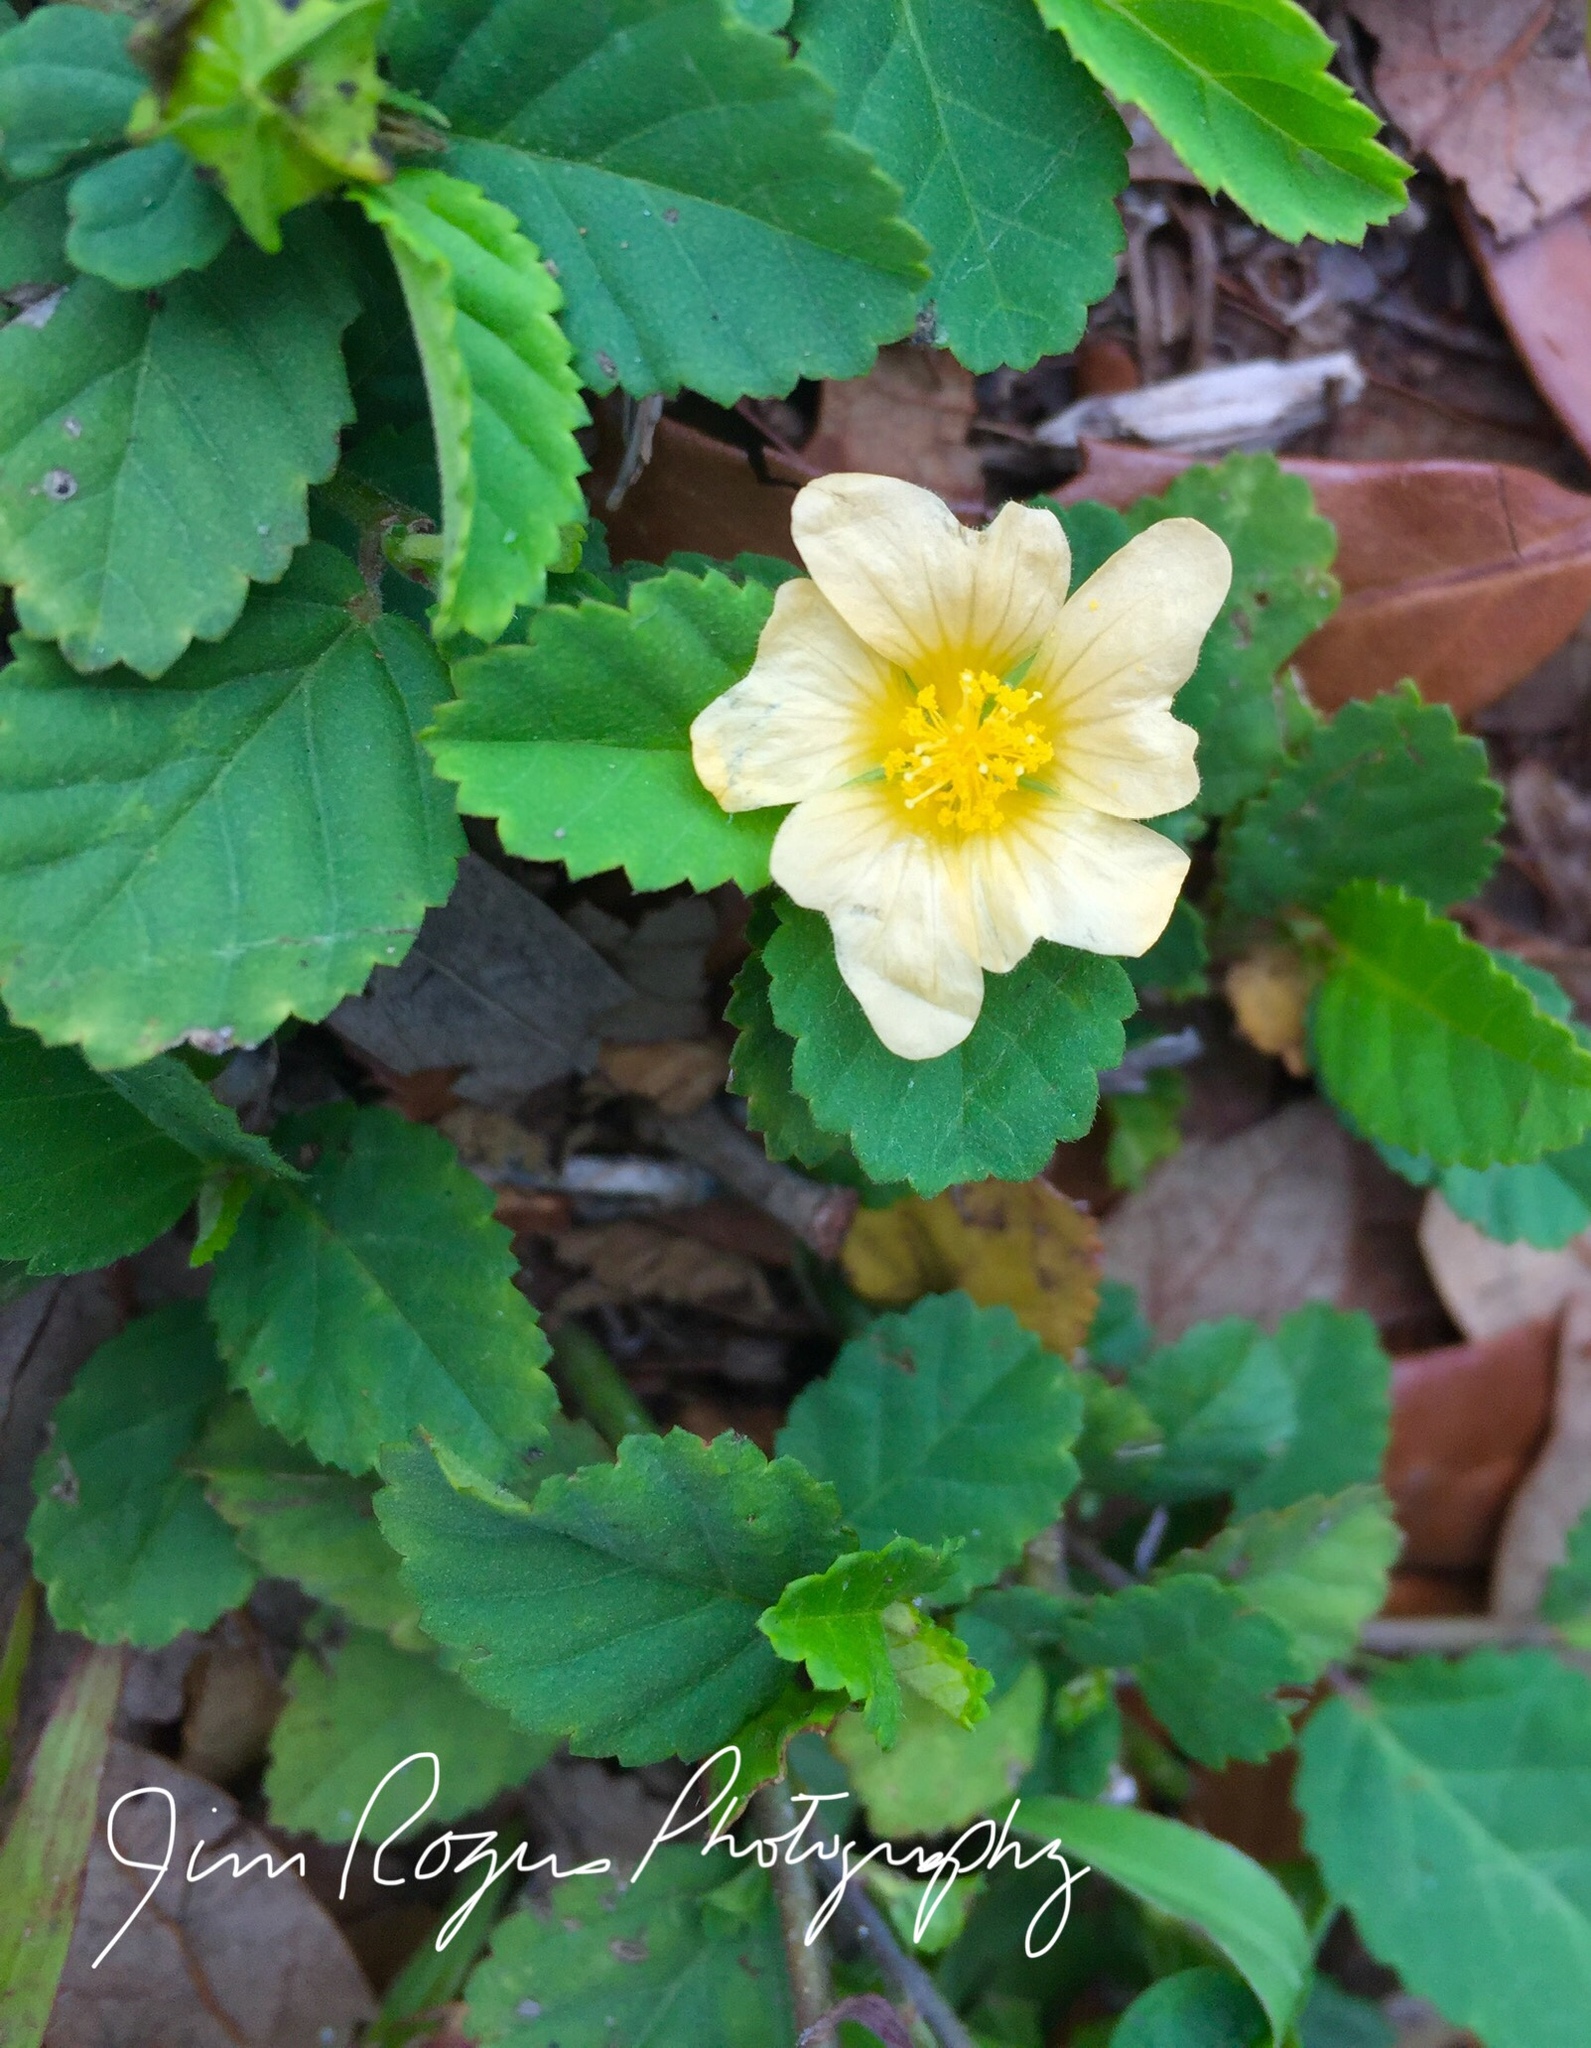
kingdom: Plantae
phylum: Tracheophyta
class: Magnoliopsida
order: Malvales
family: Malvaceae
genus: Sida
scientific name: Sida ulmifolia
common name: Broom weed
